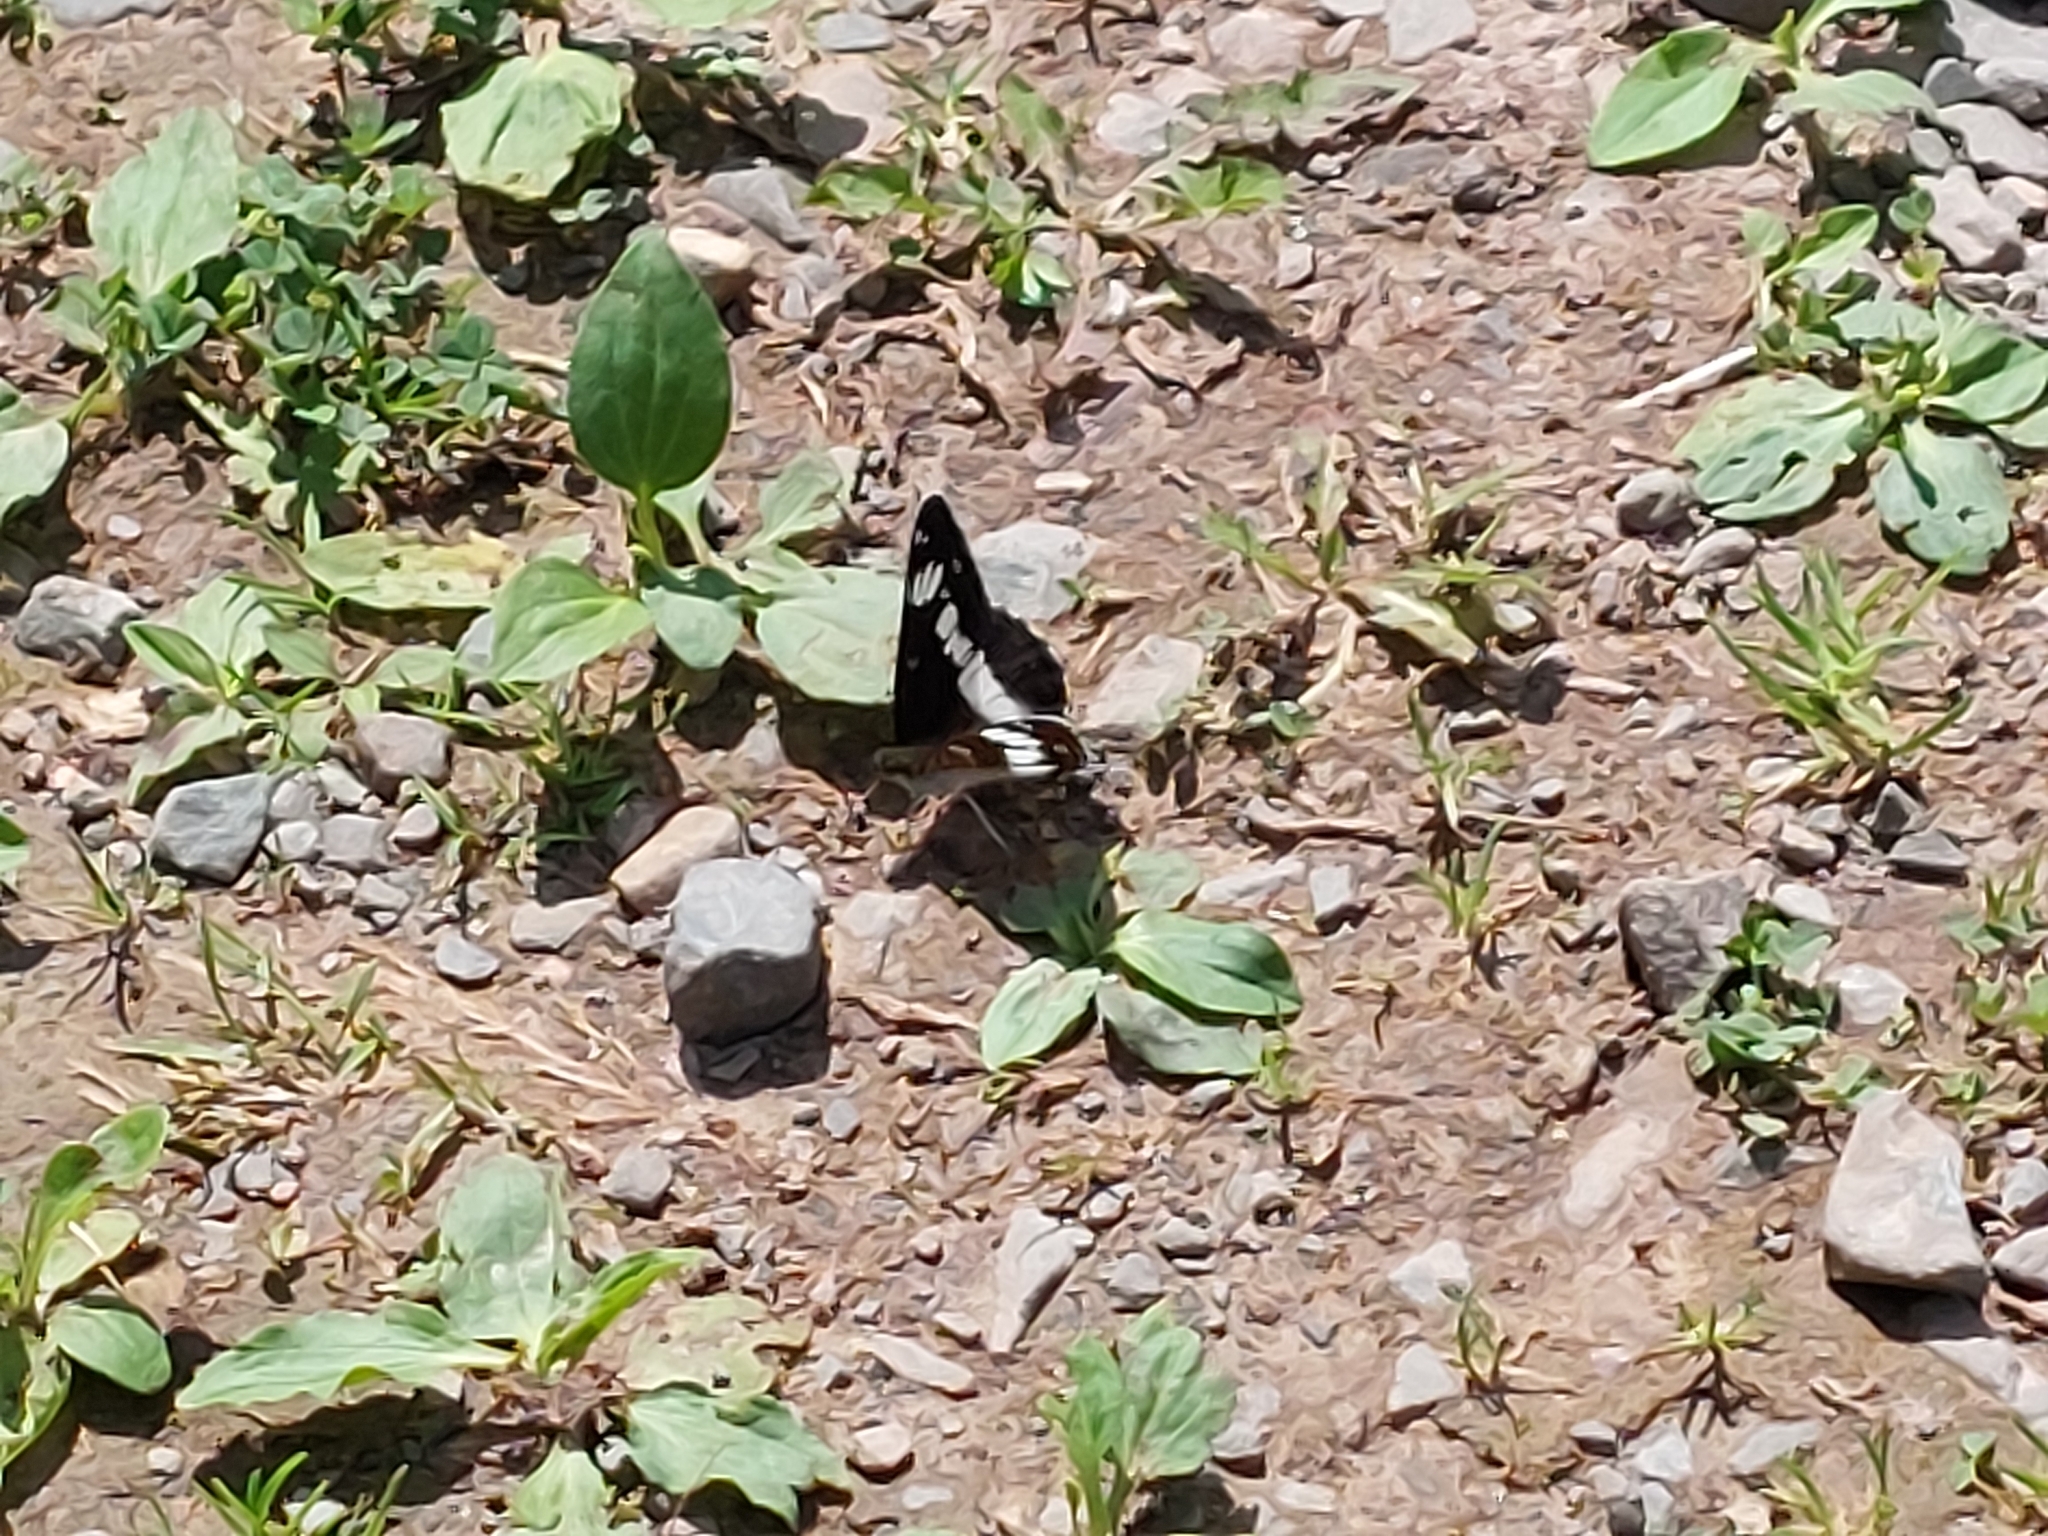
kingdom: Animalia
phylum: Arthropoda
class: Insecta
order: Lepidoptera
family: Nymphalidae
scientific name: Nymphalidae
